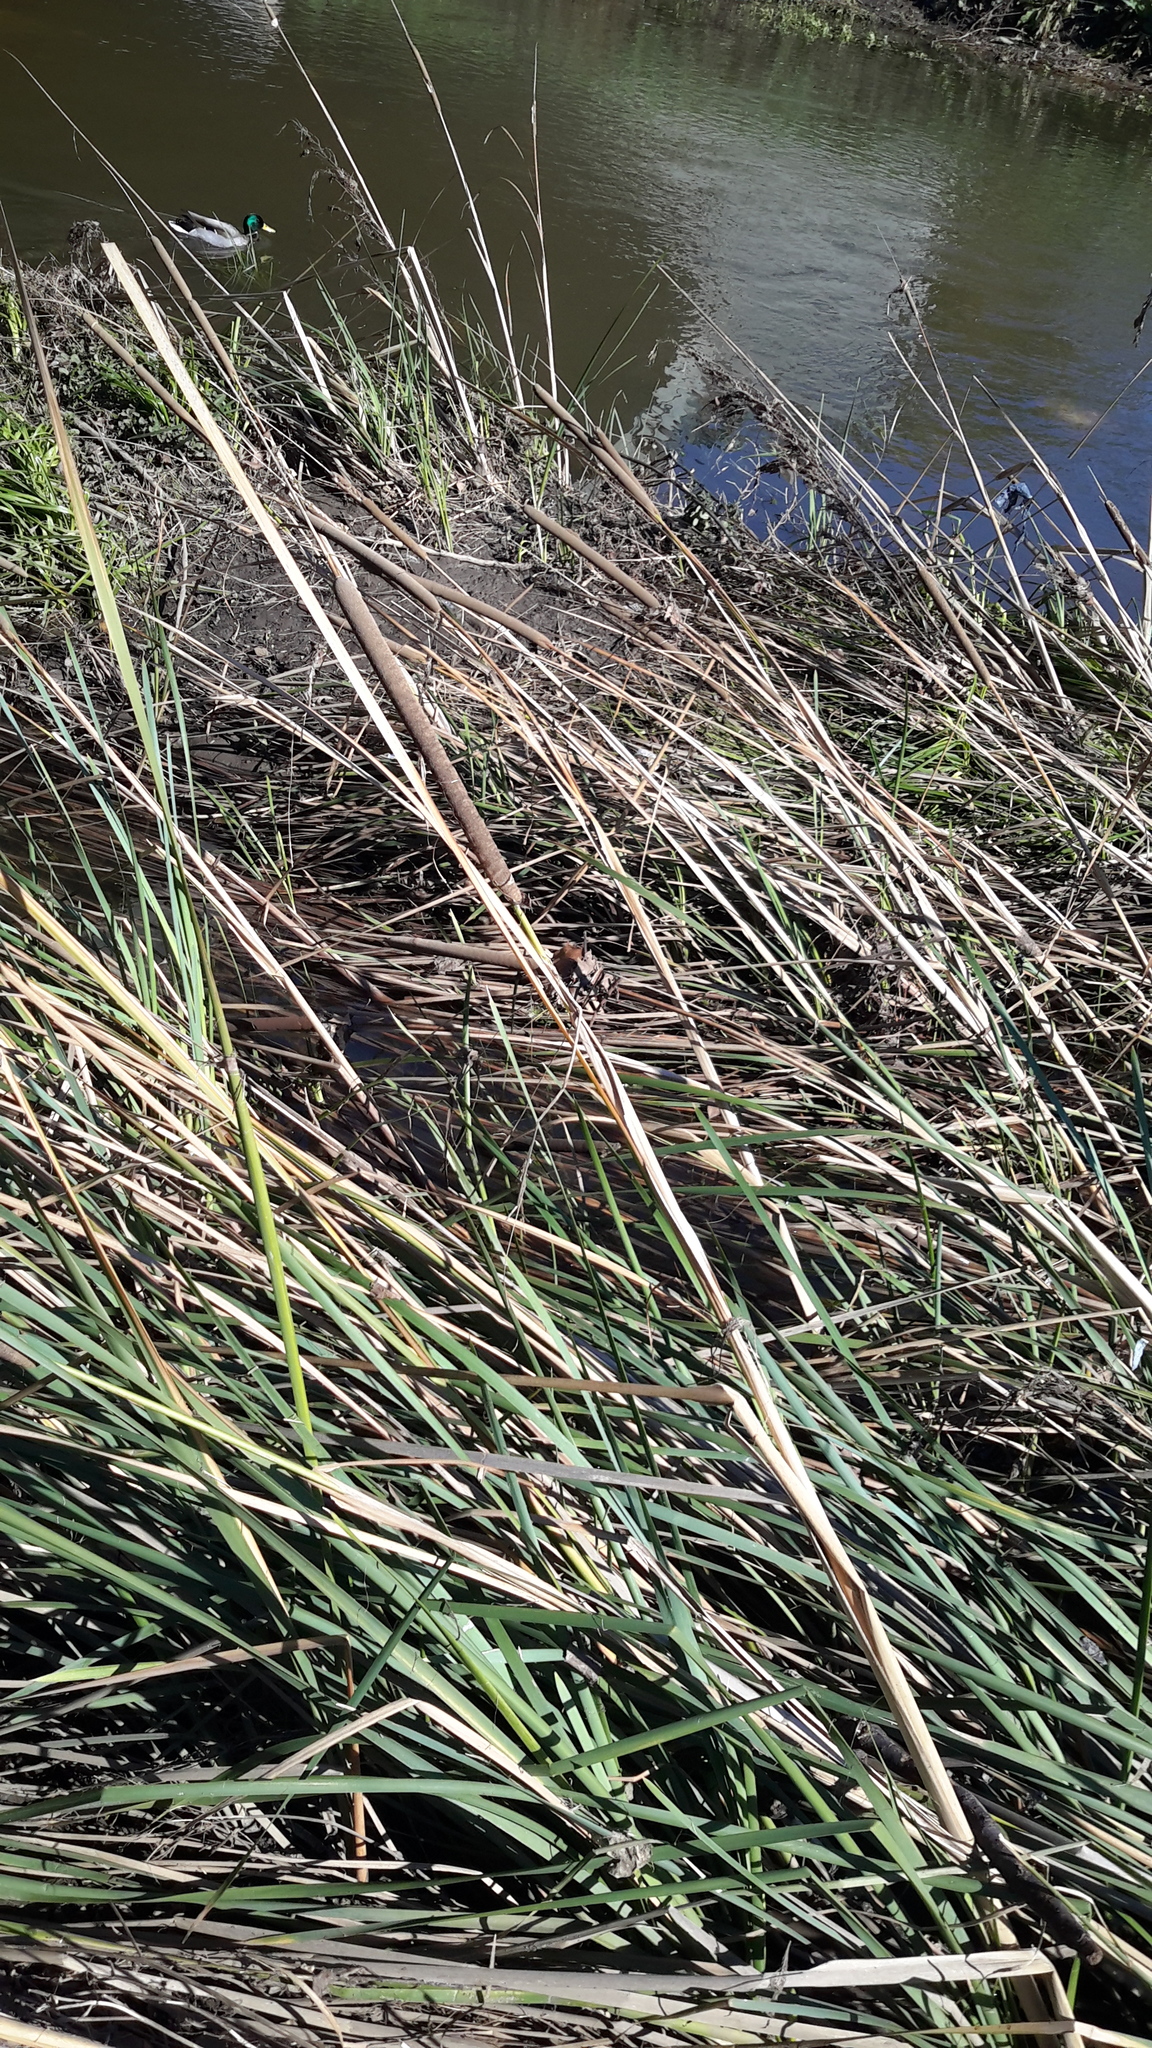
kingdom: Plantae
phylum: Tracheophyta
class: Liliopsida
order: Poales
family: Typhaceae
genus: Typha
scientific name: Typha latifolia
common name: Broadleaf cattail
